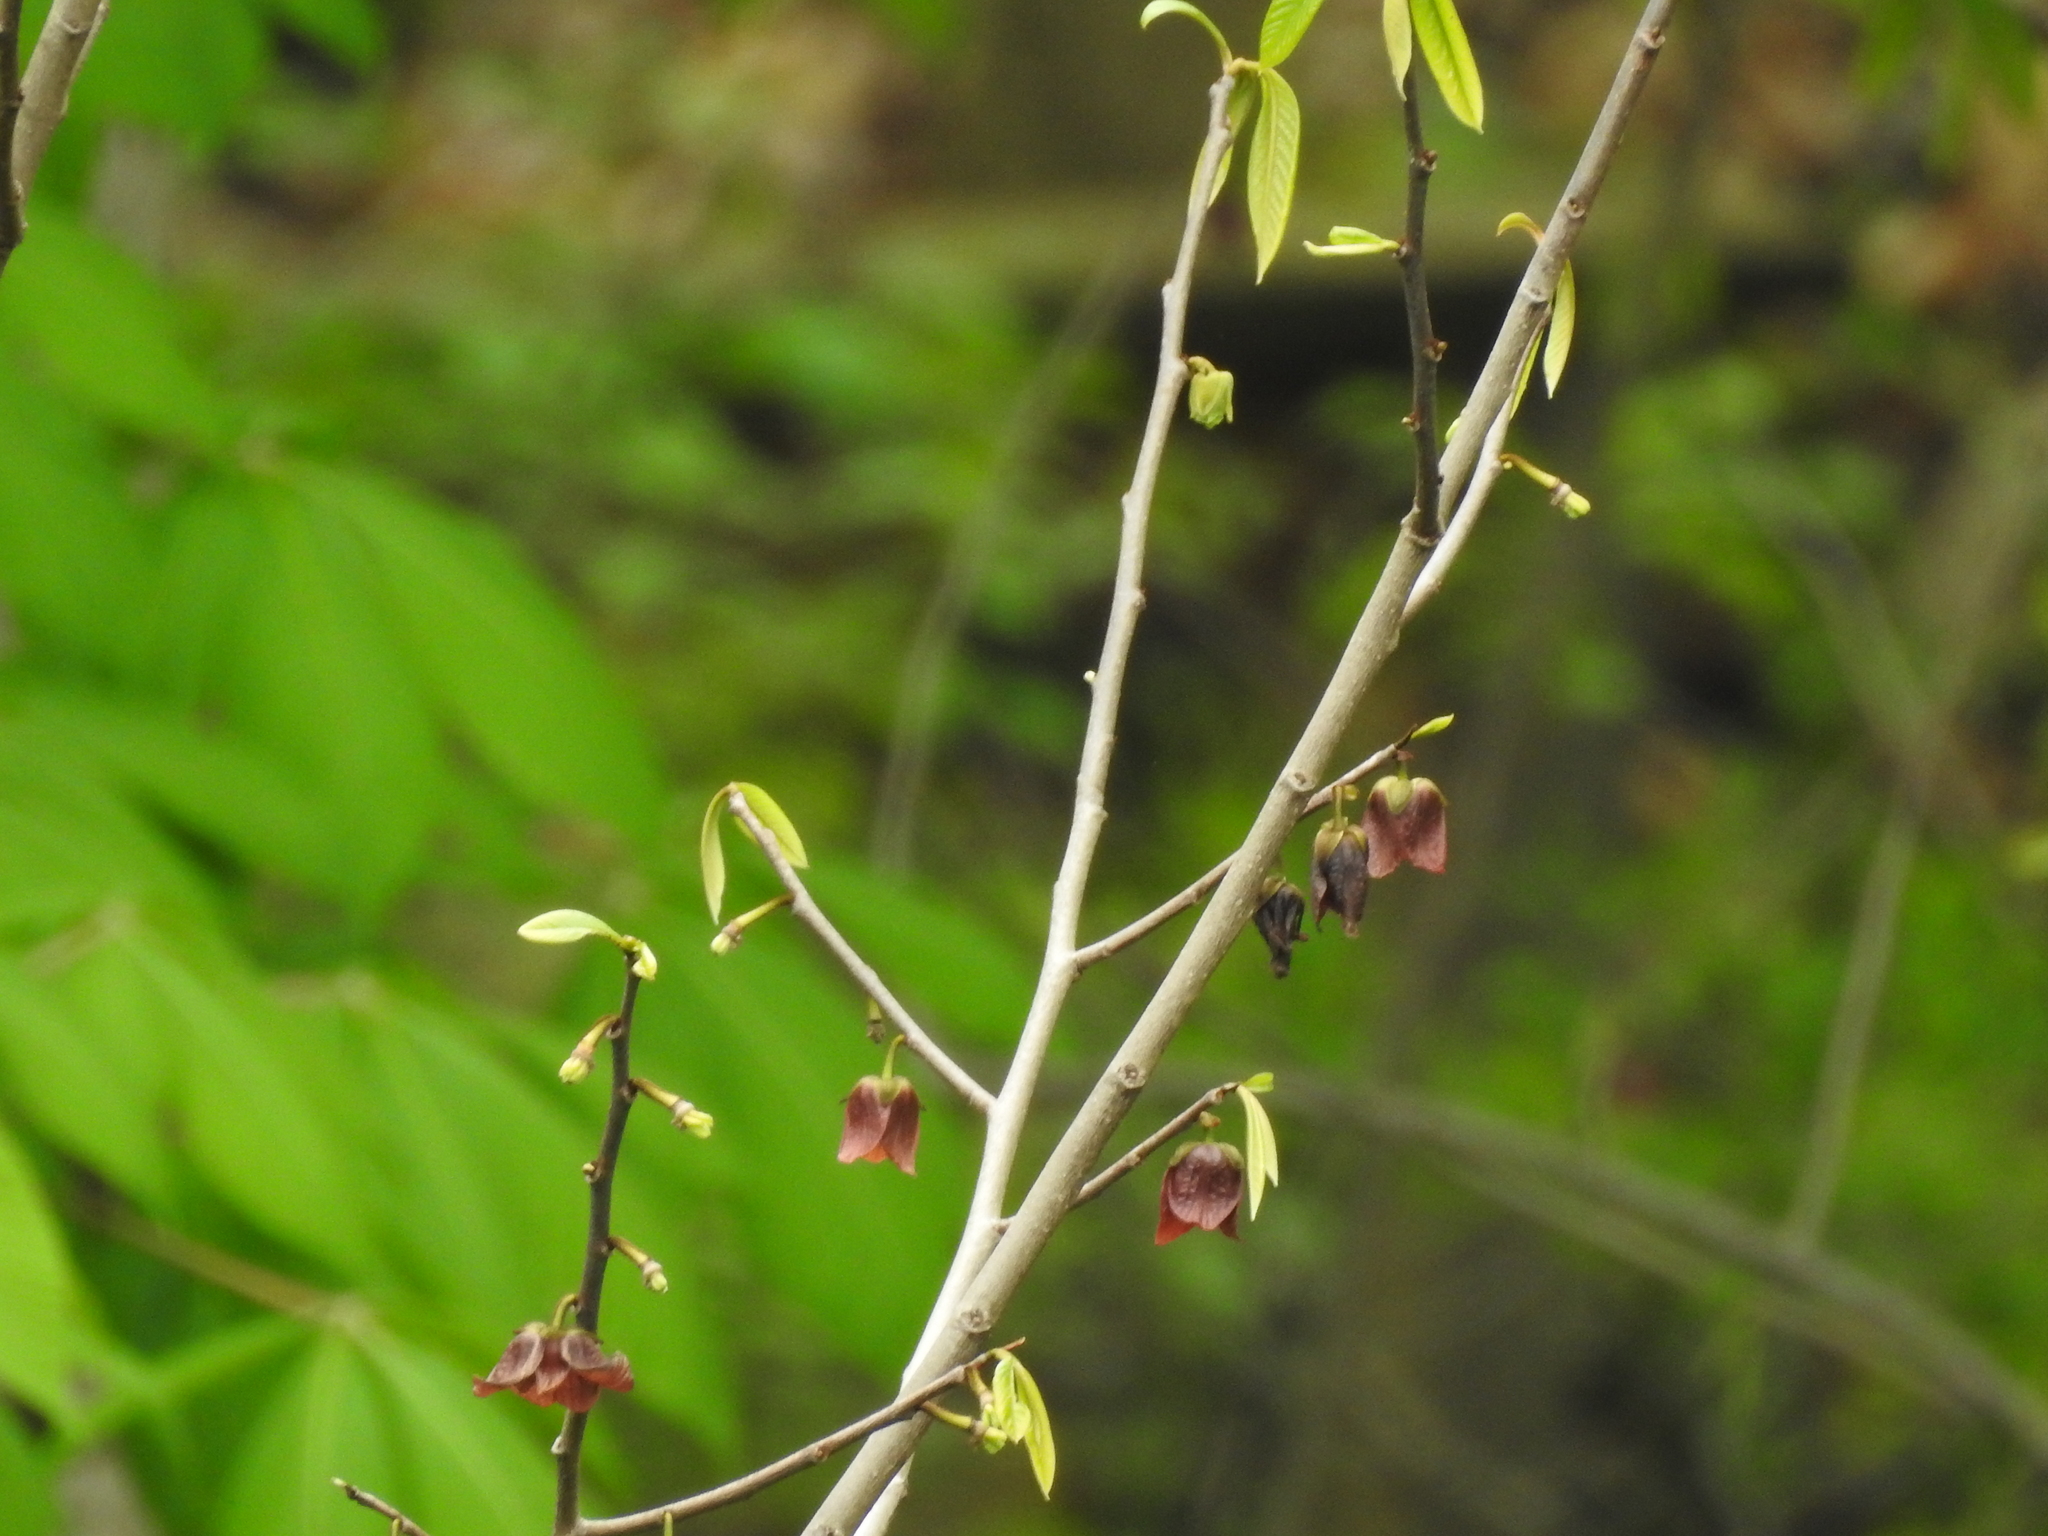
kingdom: Plantae
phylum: Tracheophyta
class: Magnoliopsida
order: Magnoliales
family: Annonaceae
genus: Asimina
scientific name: Asimina triloba
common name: Dog-banana
